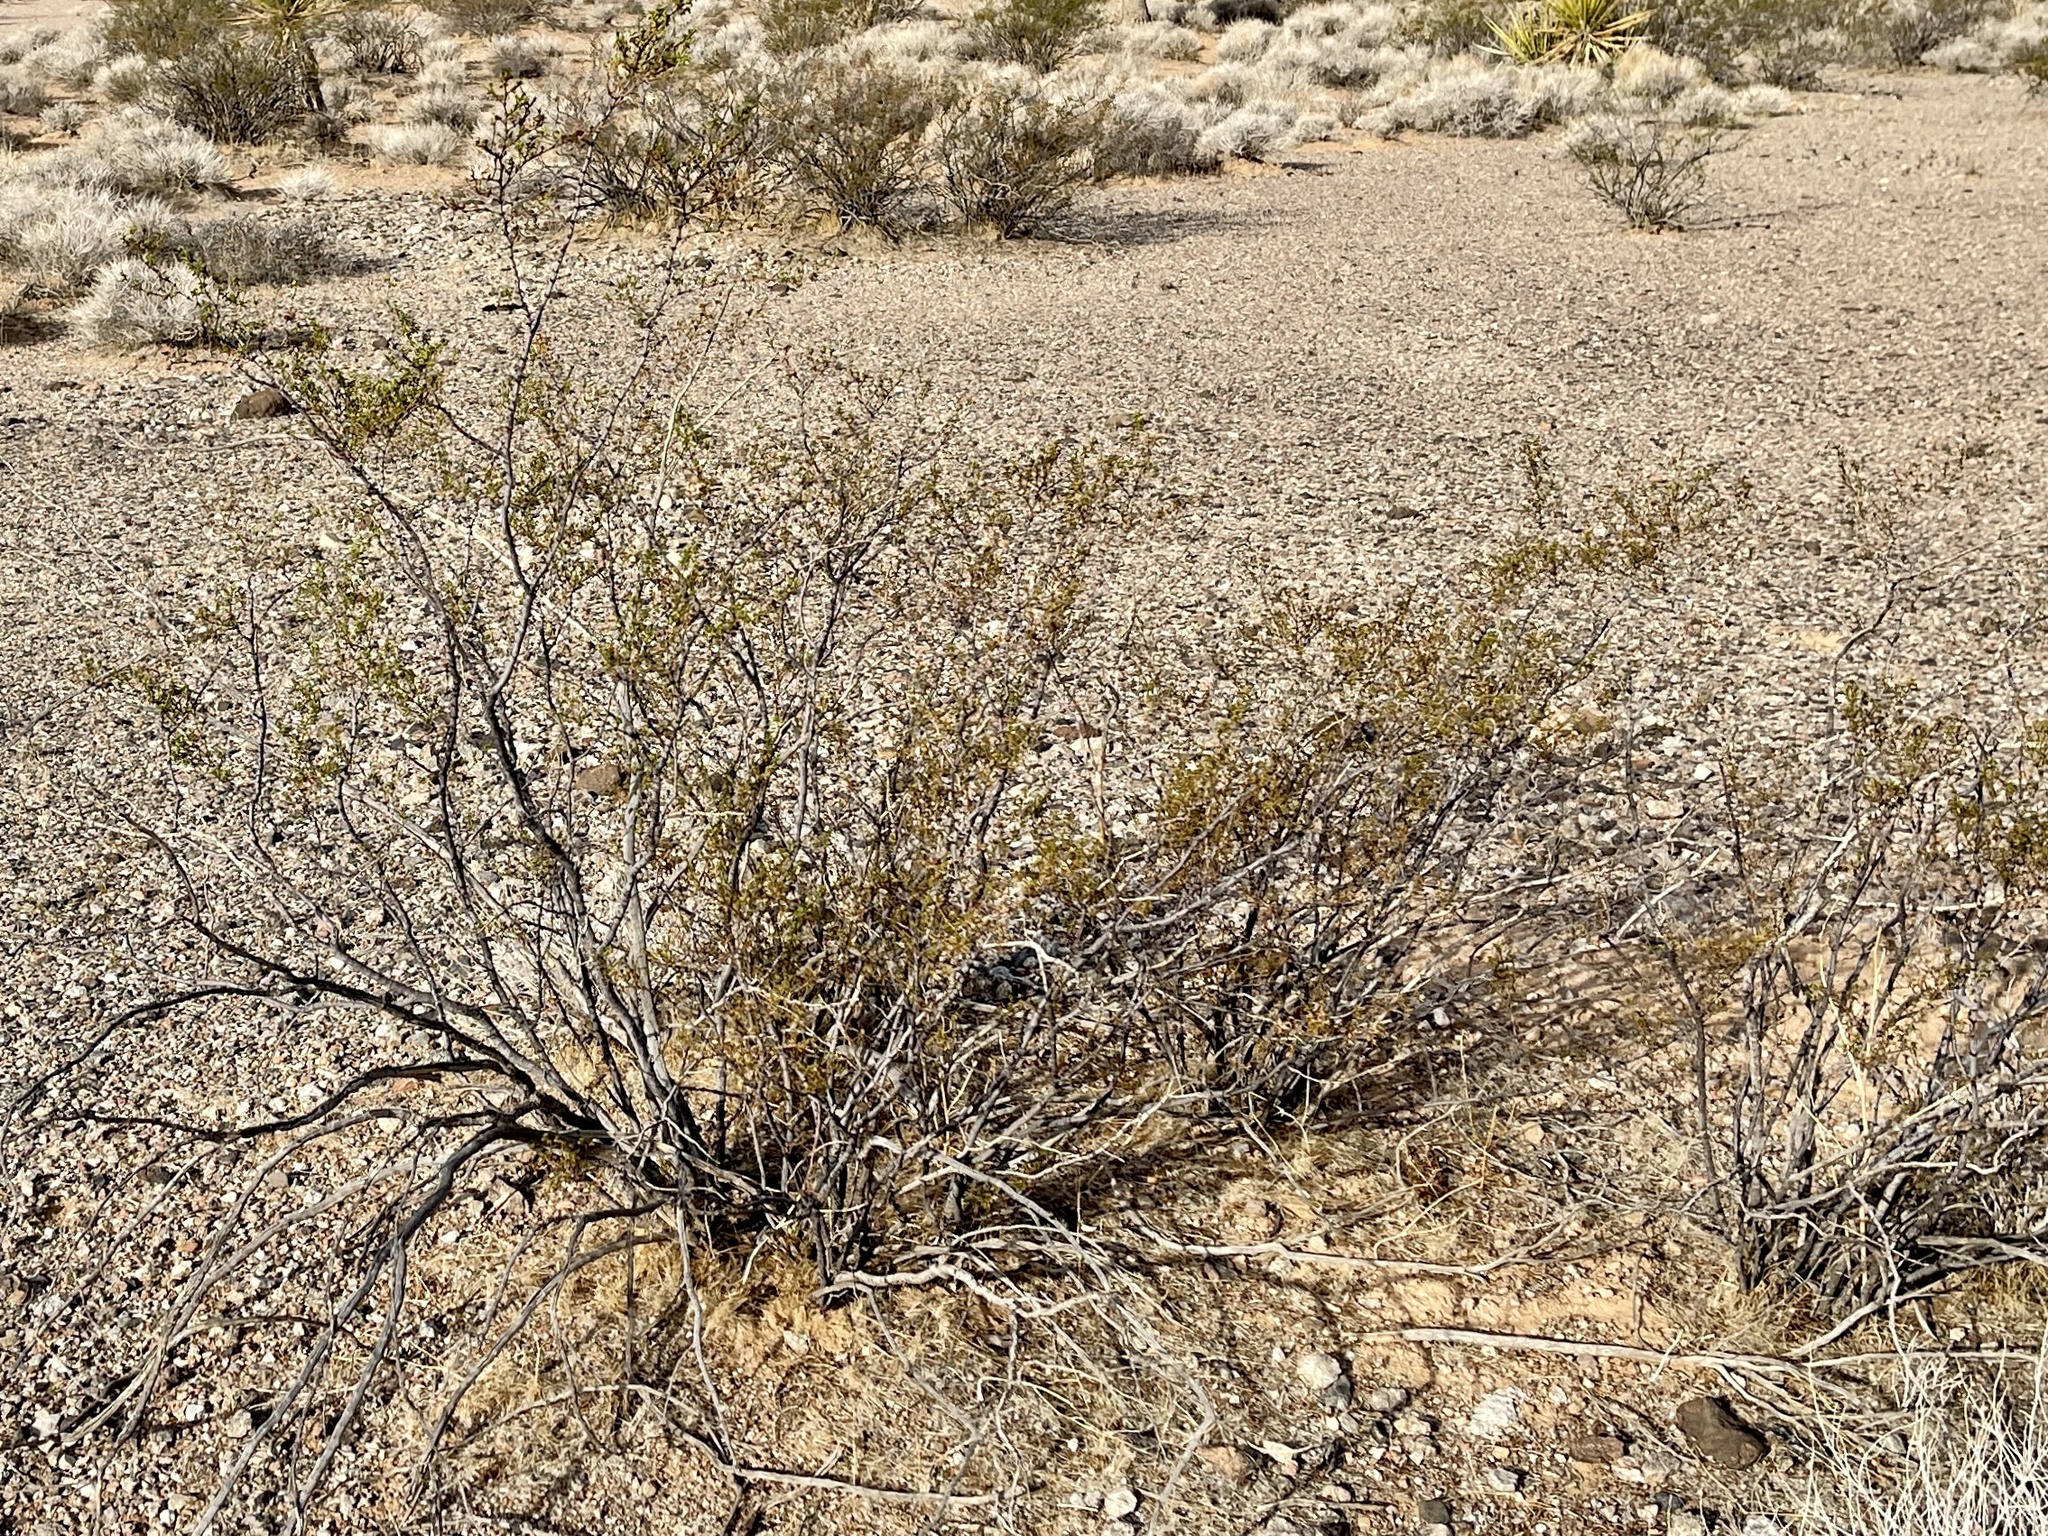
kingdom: Plantae
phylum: Tracheophyta
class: Magnoliopsida
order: Zygophyllales
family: Zygophyllaceae
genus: Larrea
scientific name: Larrea tridentata
